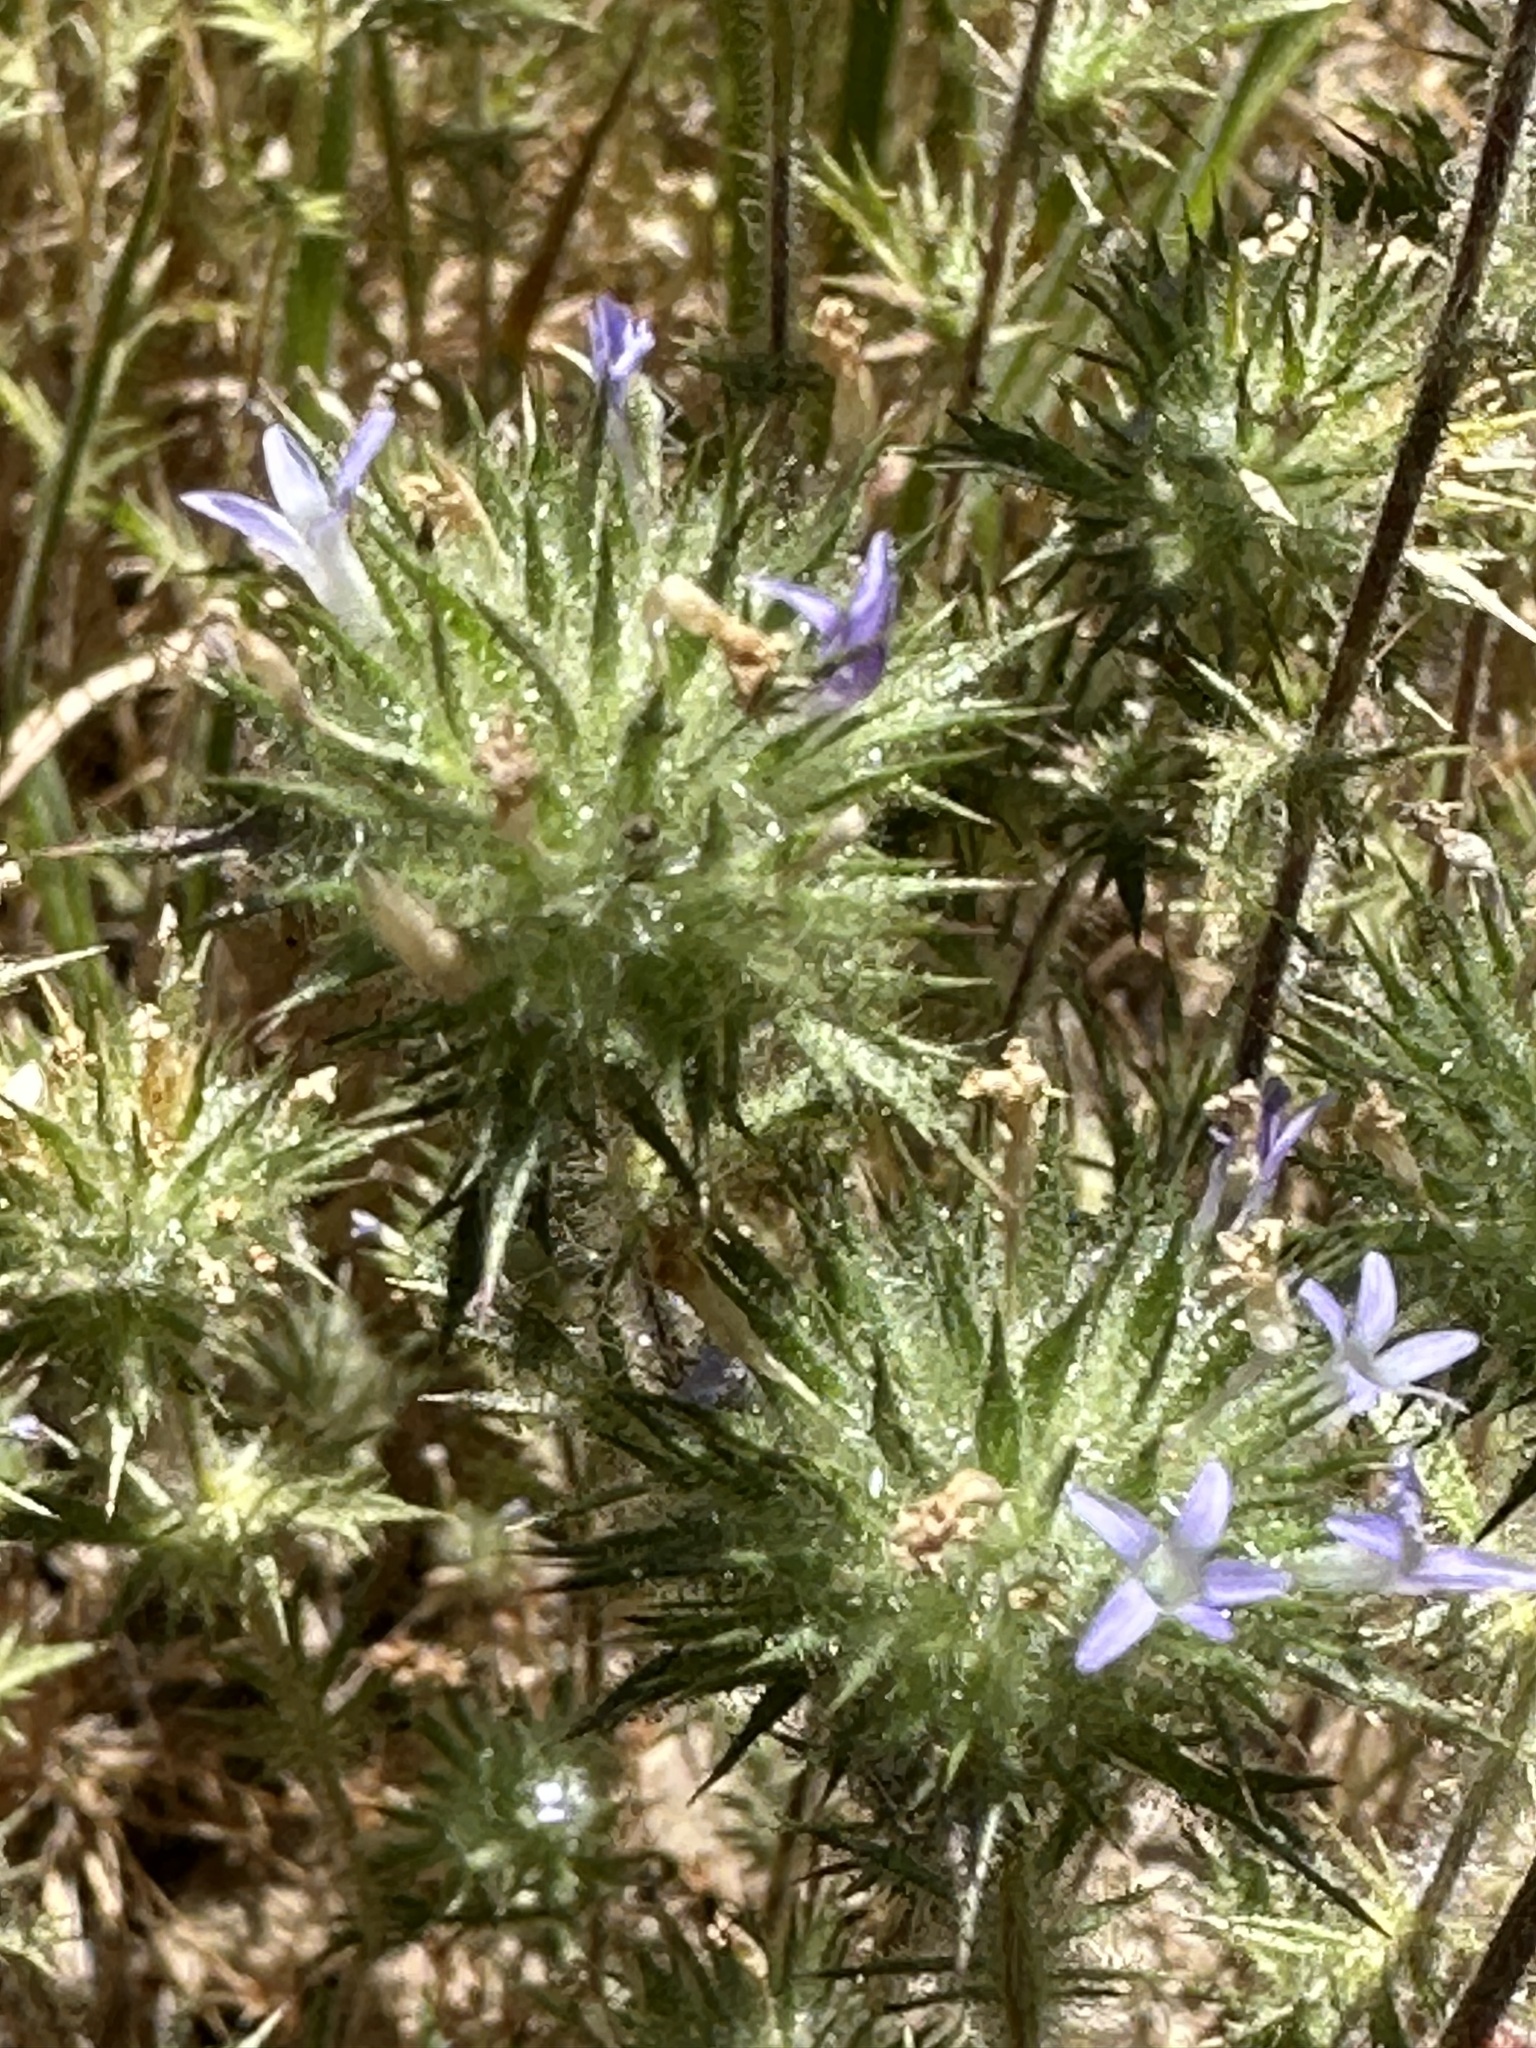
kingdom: Plantae
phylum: Tracheophyta
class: Magnoliopsida
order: Ericales
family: Polemoniaceae
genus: Navarretia
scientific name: Navarretia squarrosa
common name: Skunkweed
